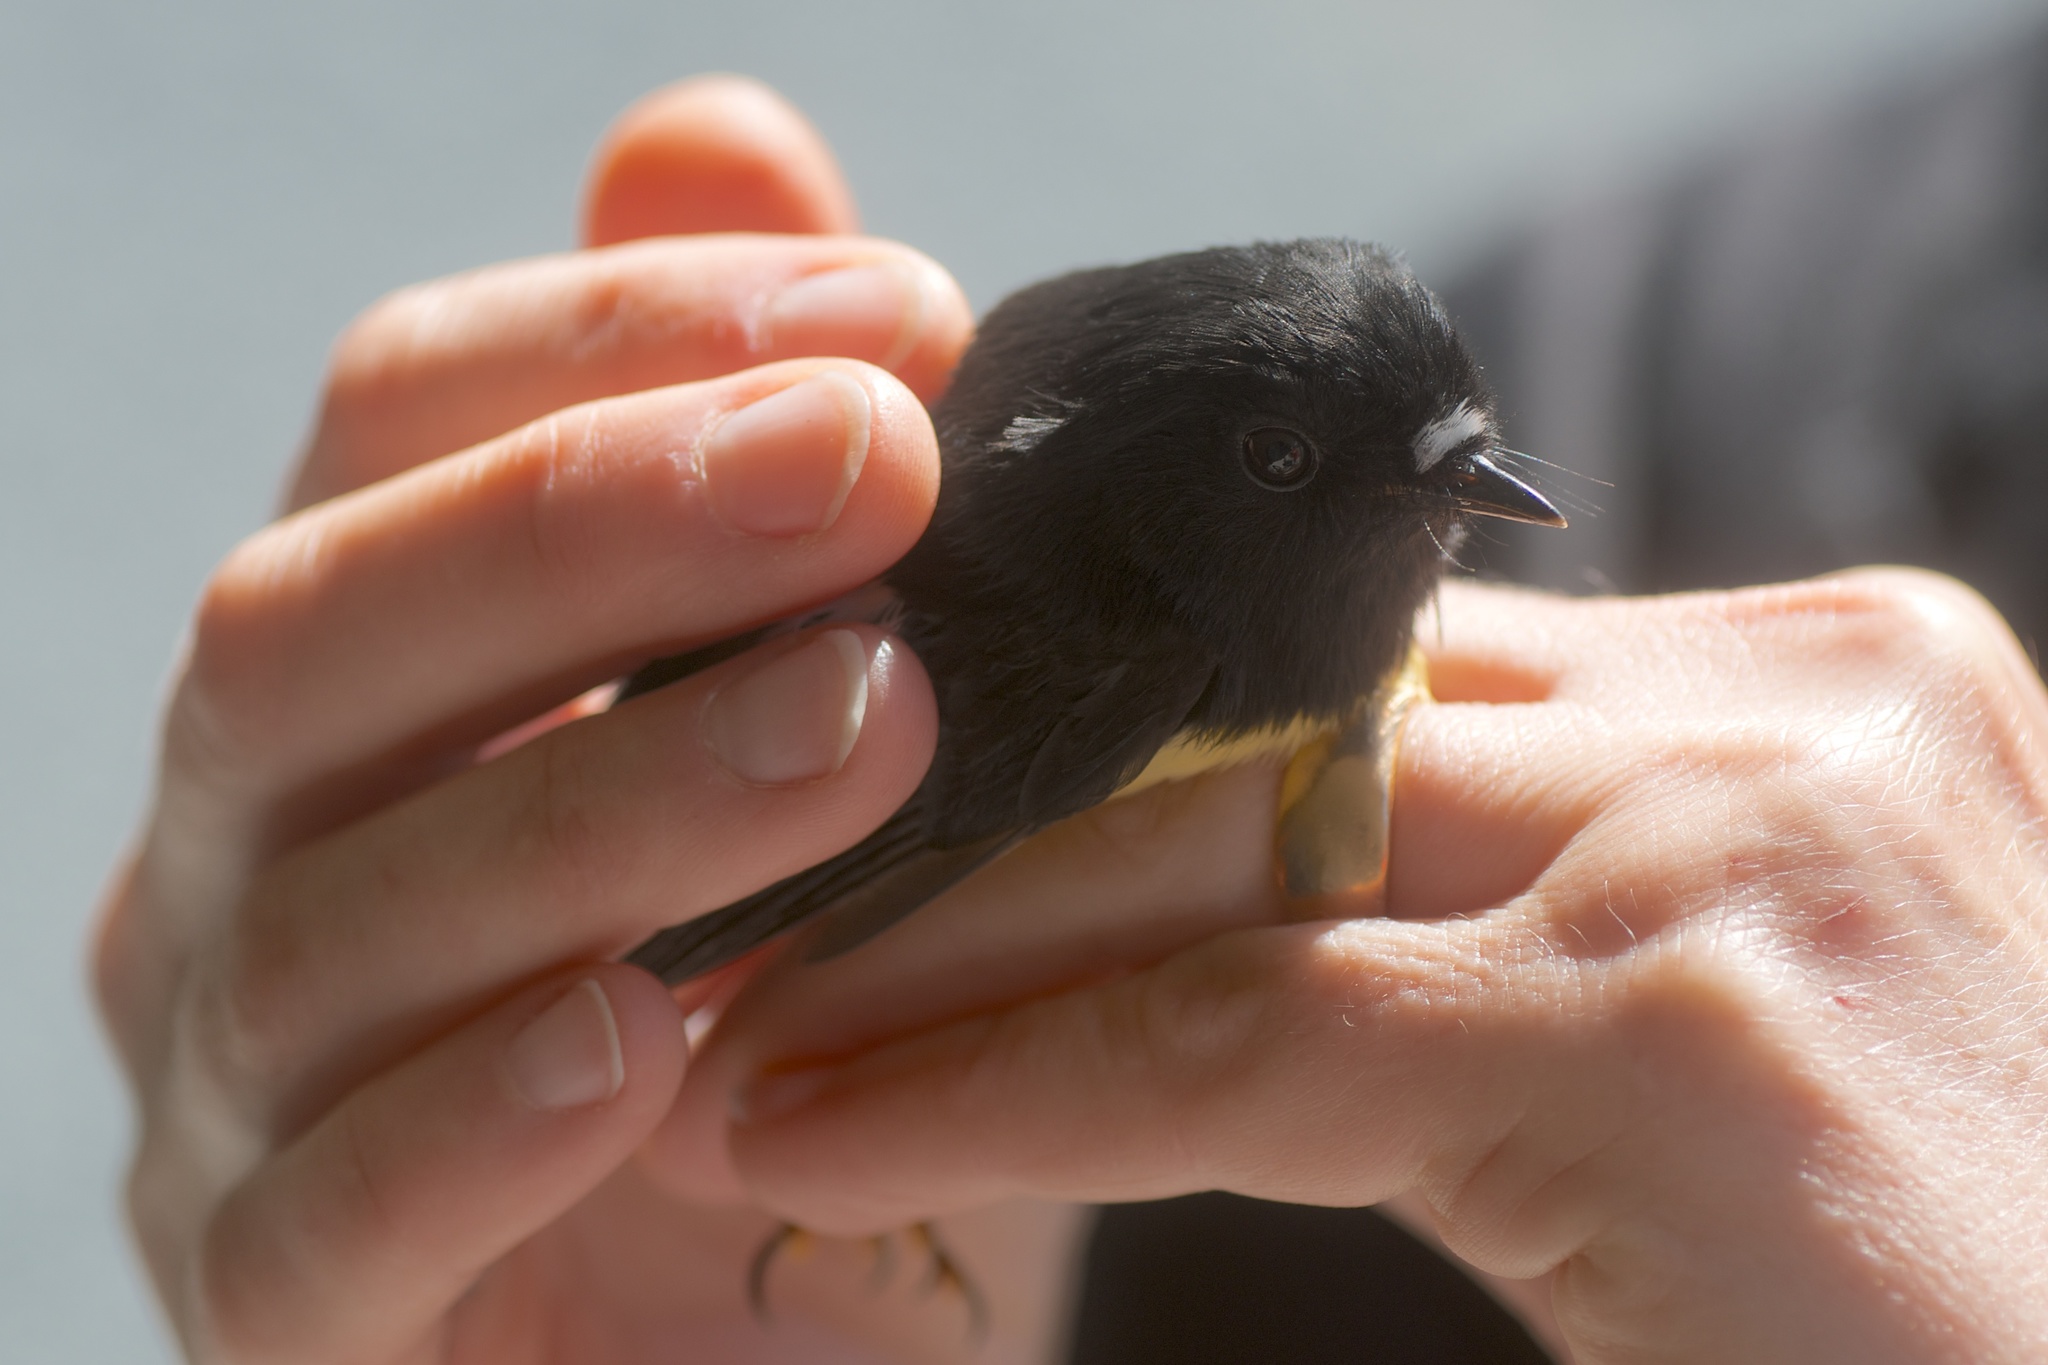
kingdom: Animalia
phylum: Chordata
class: Aves
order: Passeriformes
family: Petroicidae
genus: Petroica
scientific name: Petroica macrocephala
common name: Tomtit
